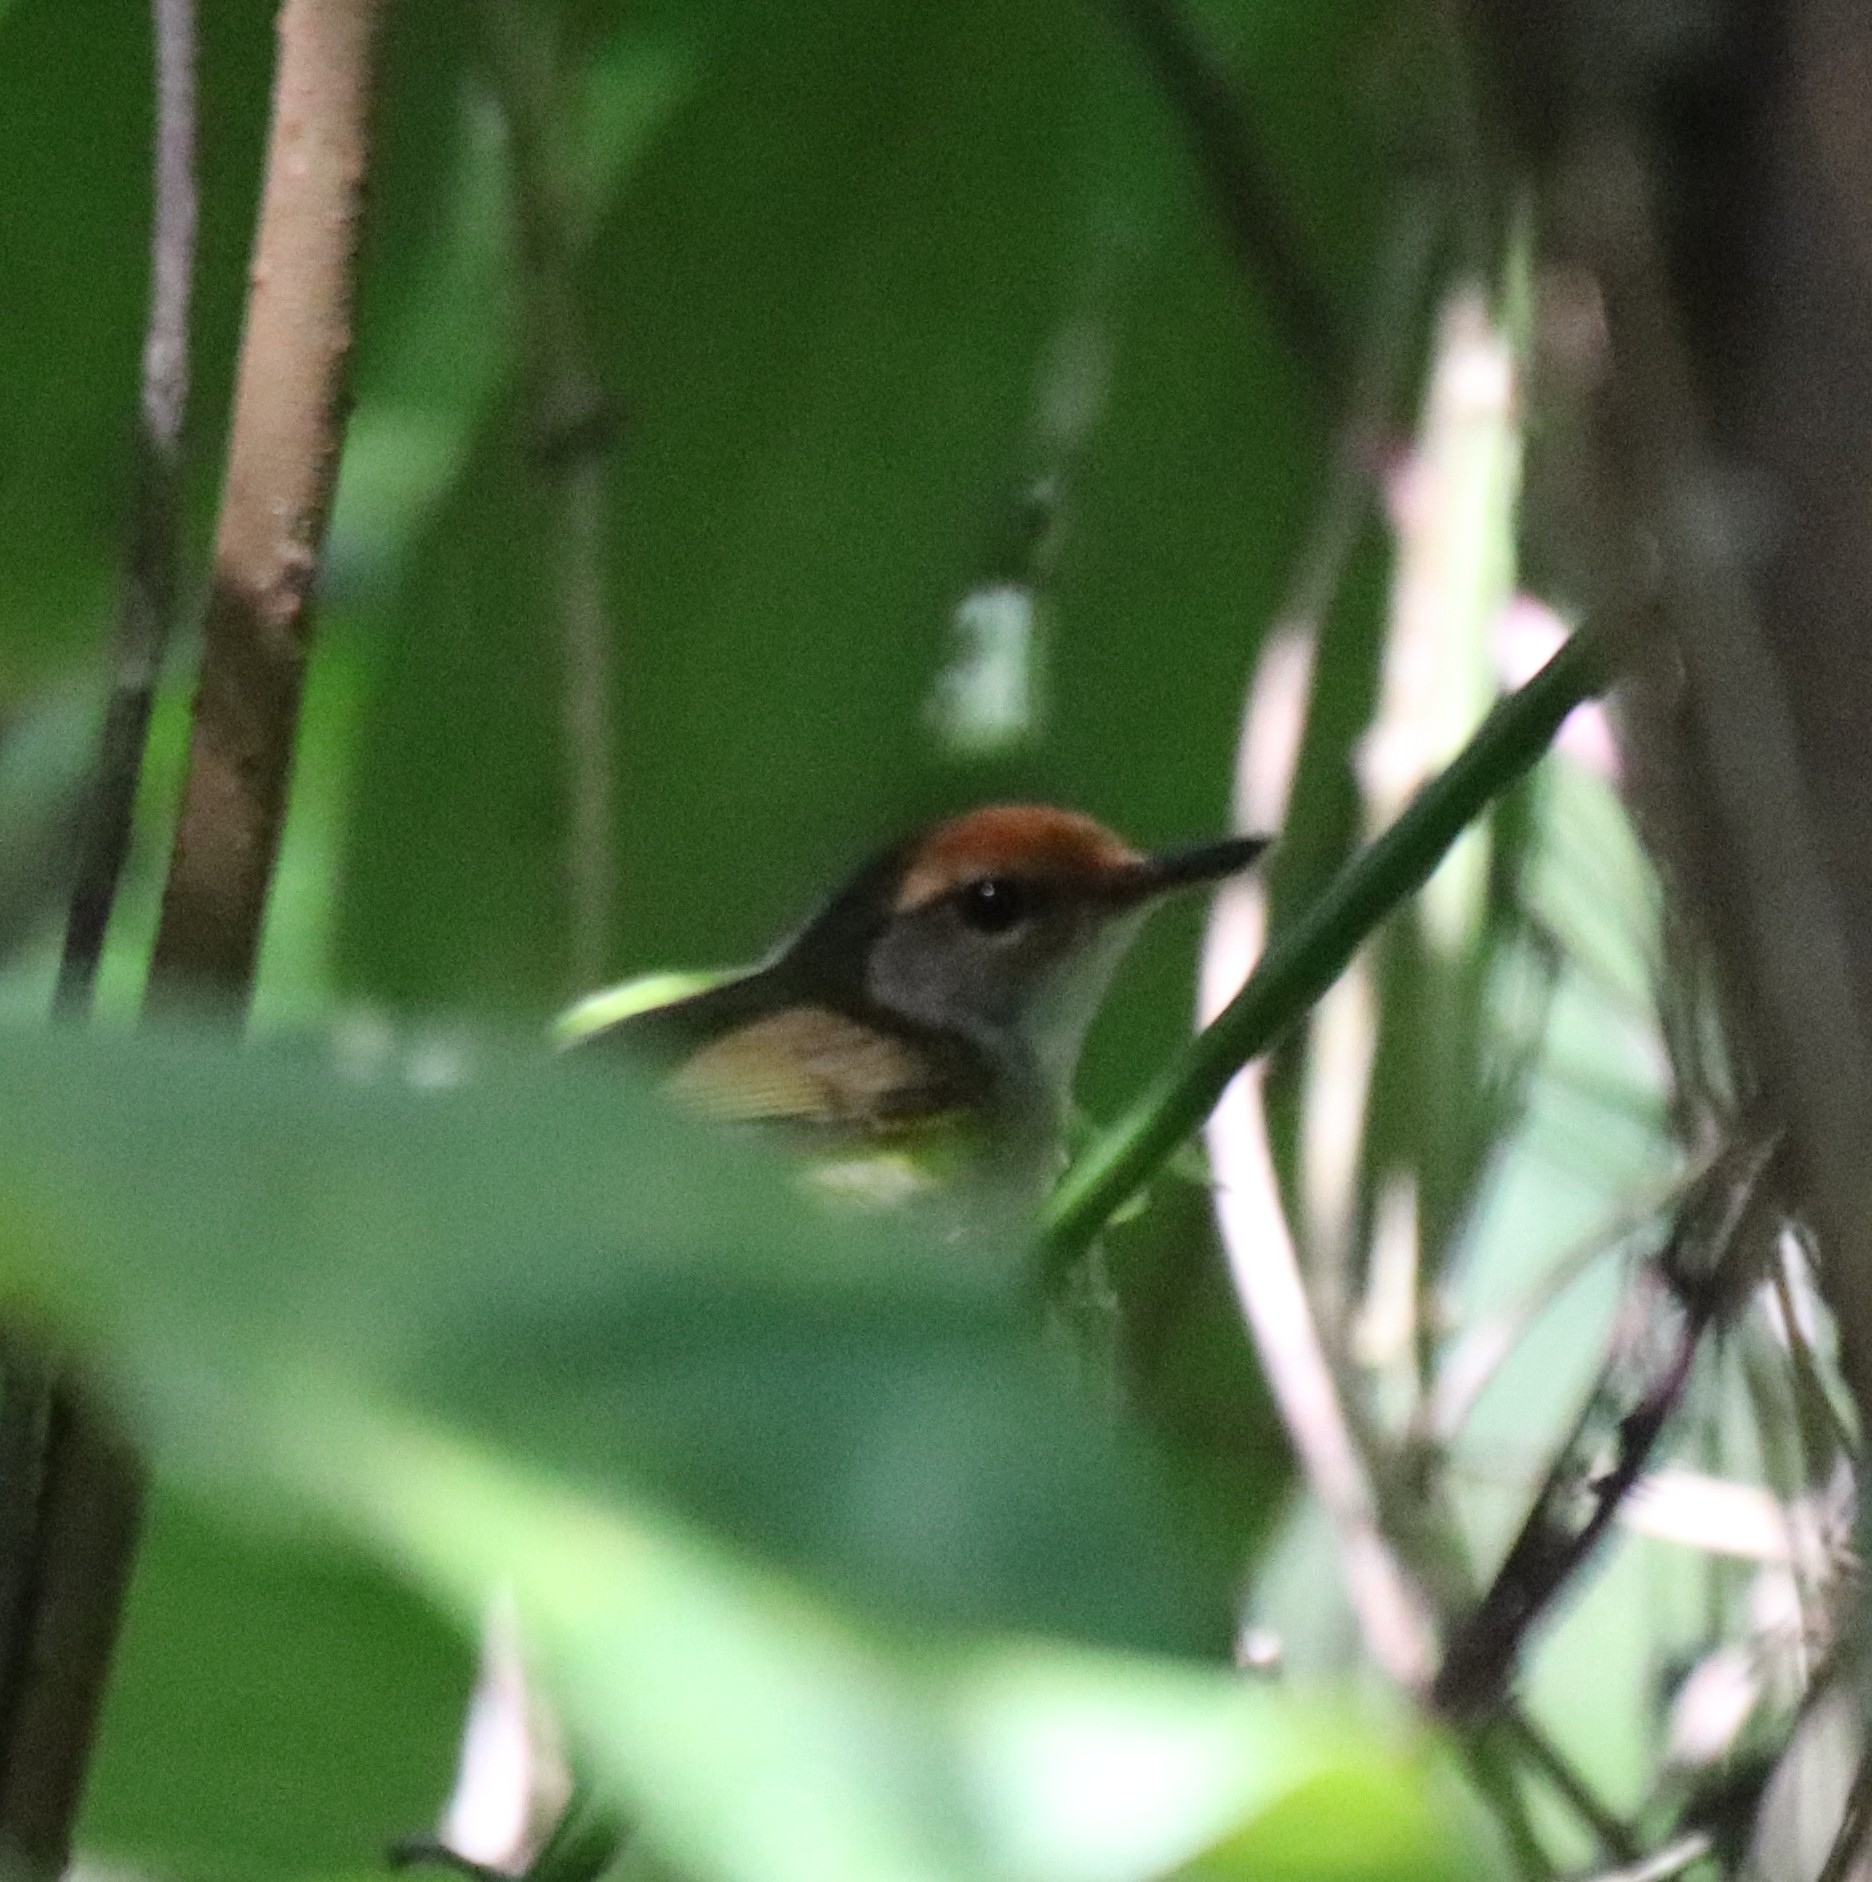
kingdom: Animalia
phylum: Chordata
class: Aves
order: Passeriformes
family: Cettiidae
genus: Phyllergates
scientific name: Phyllergates cuculatus
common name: Mountain tailorbird
